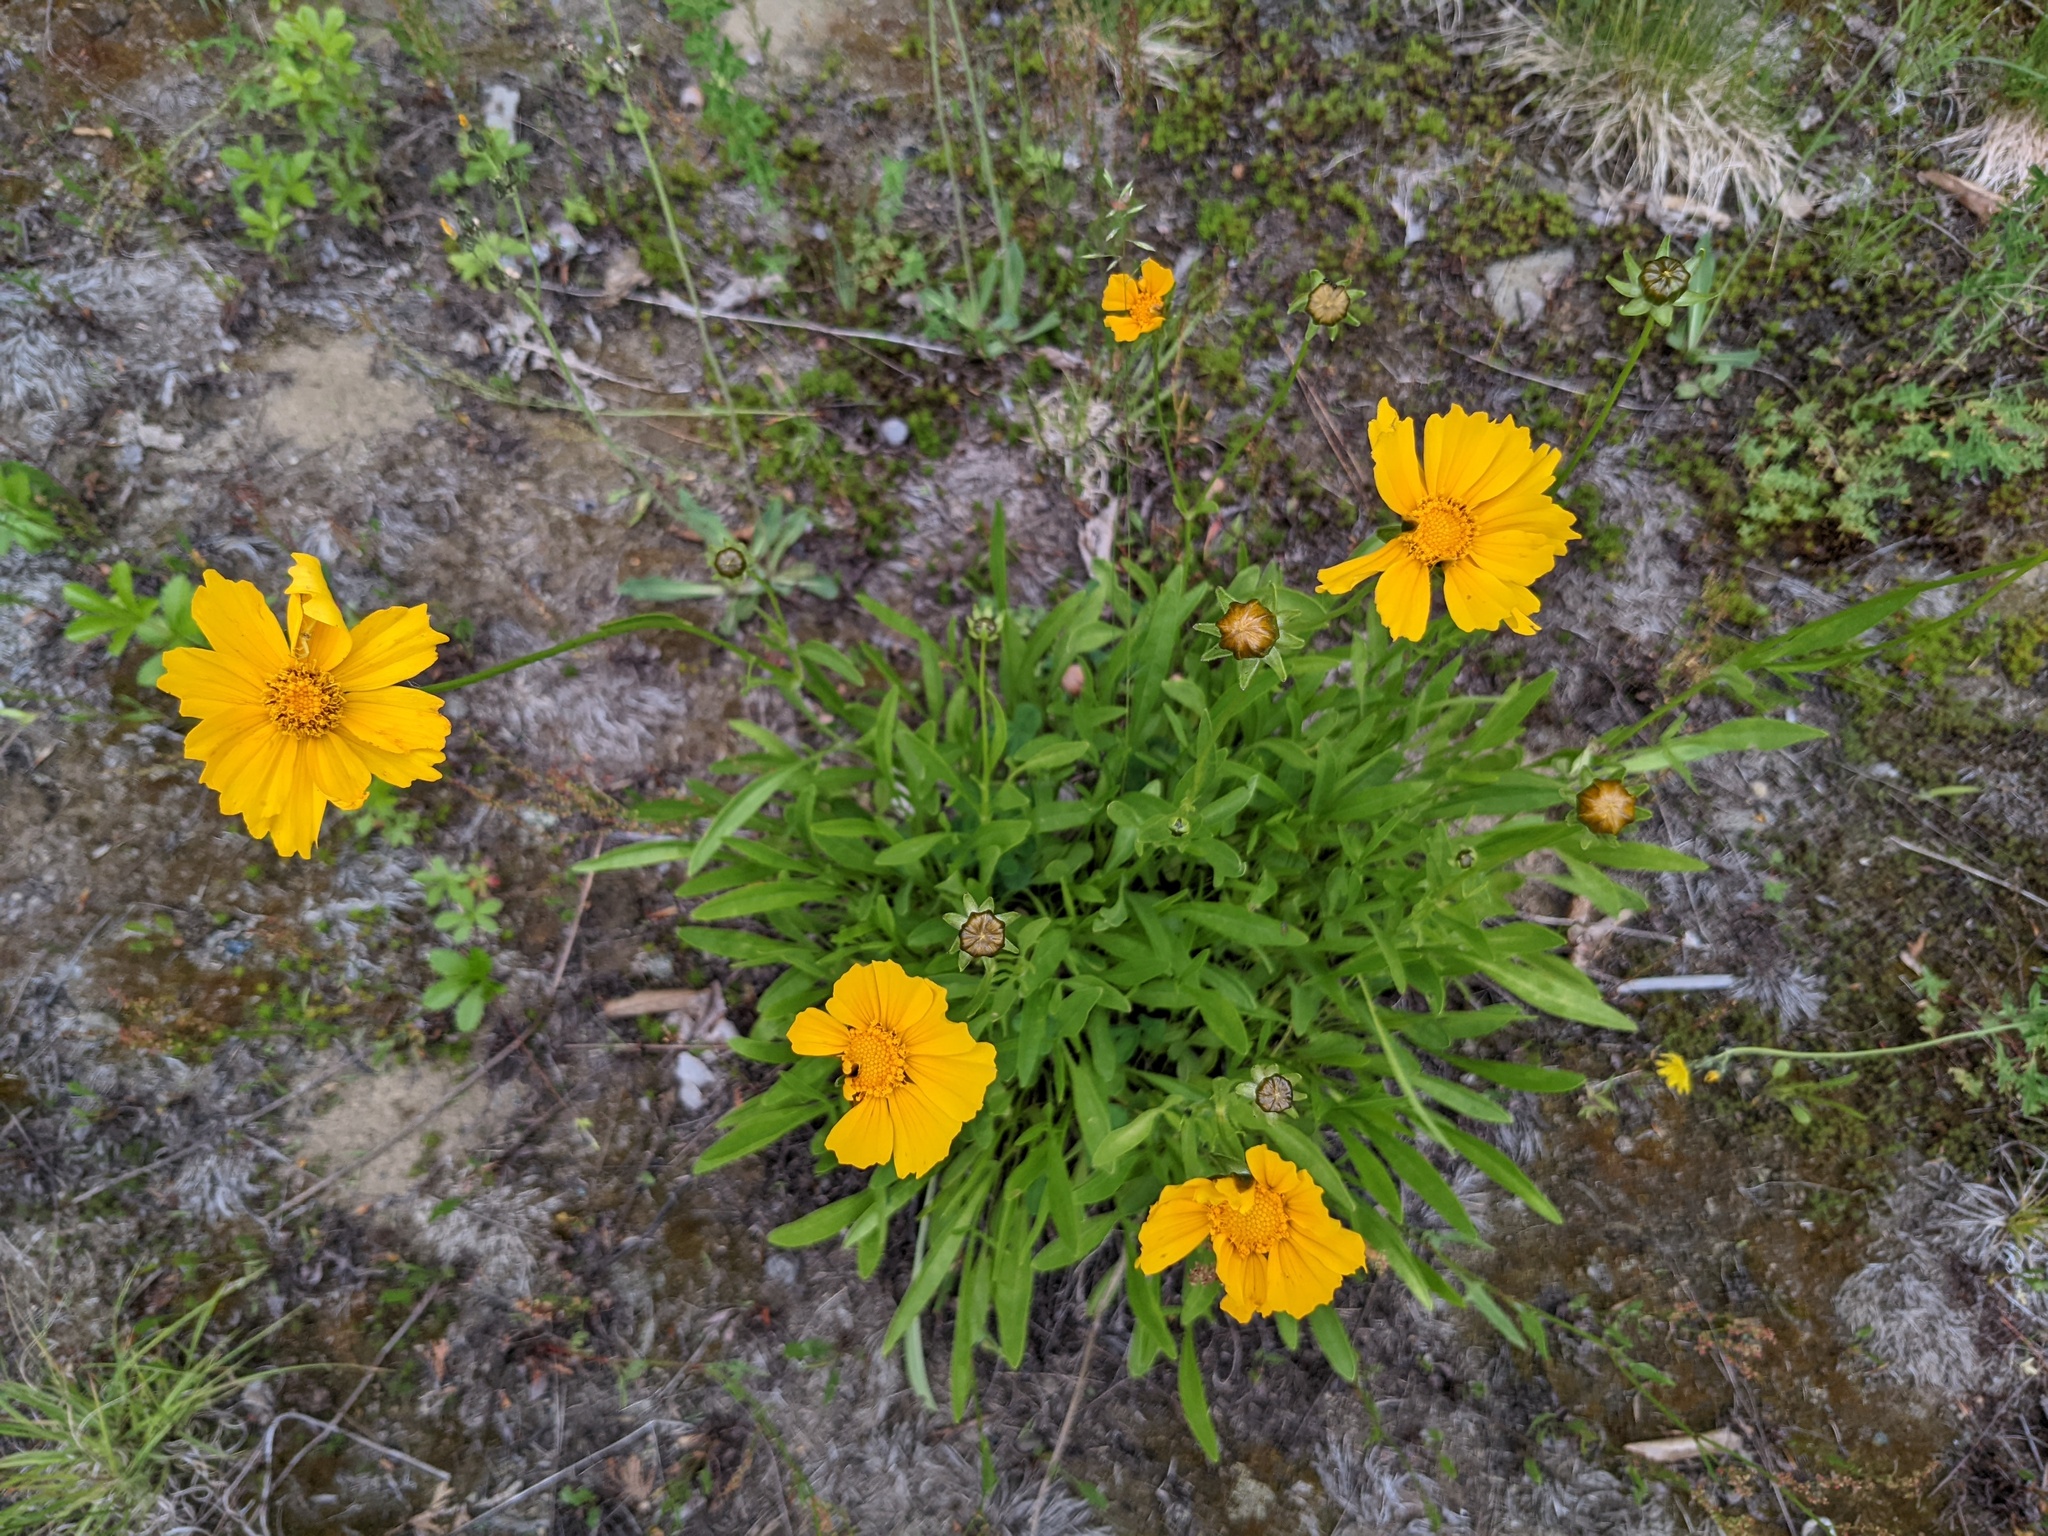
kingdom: Plantae
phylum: Tracheophyta
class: Magnoliopsida
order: Asterales
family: Asteraceae
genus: Coreopsis
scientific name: Coreopsis lanceolata
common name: Garden coreopsis
